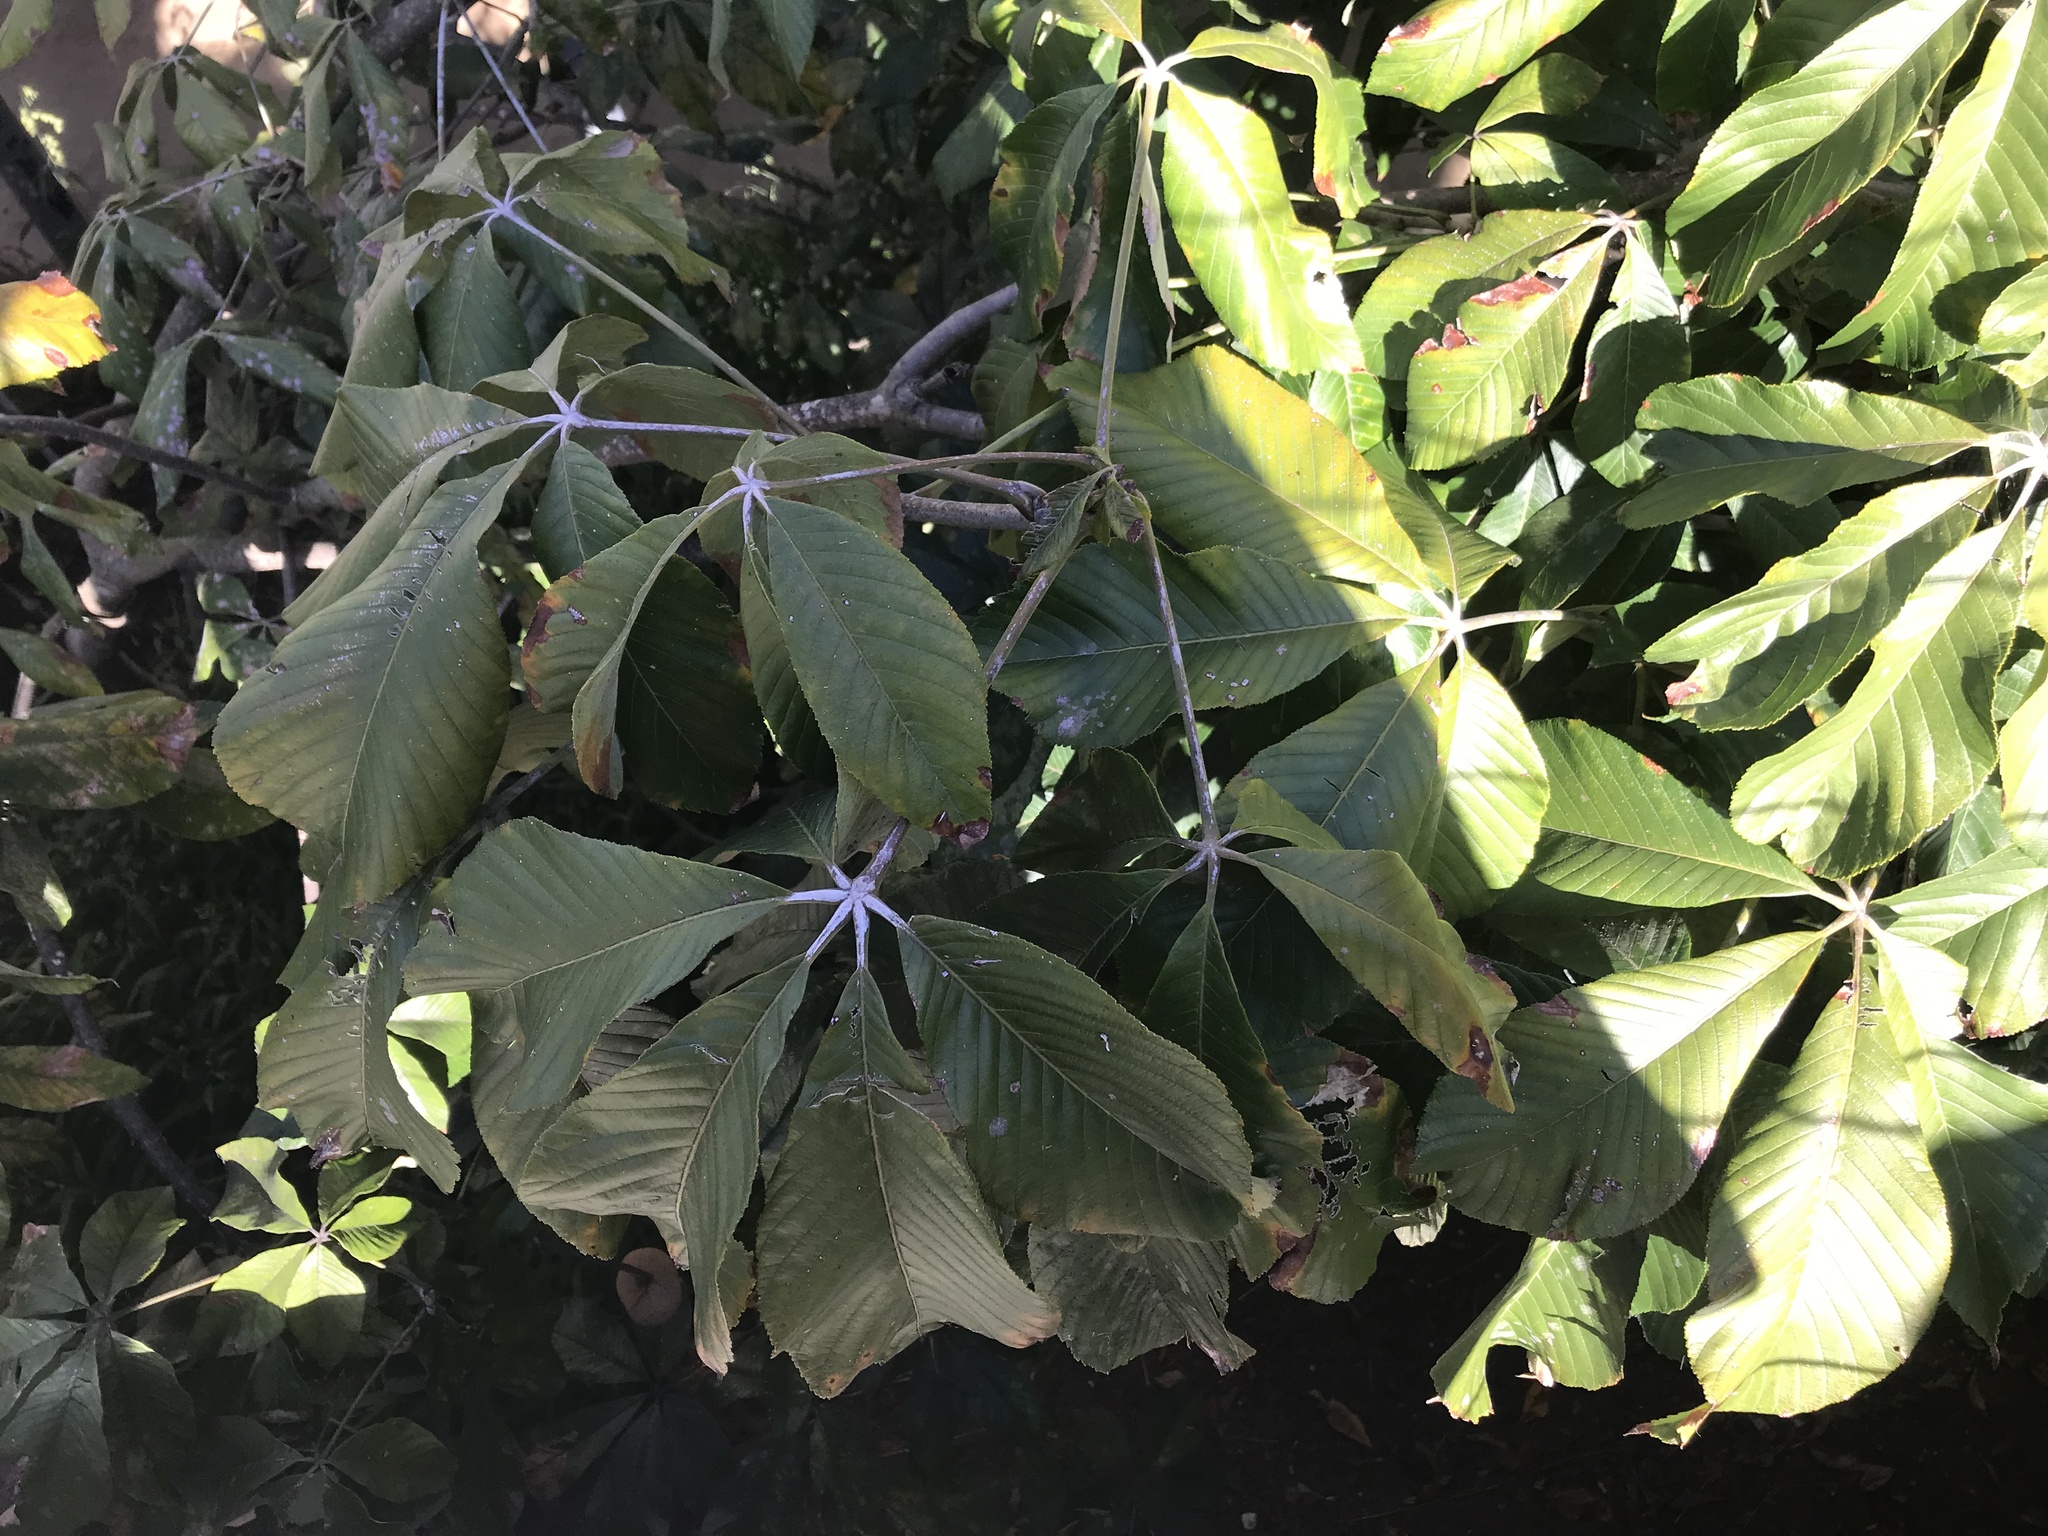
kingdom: Plantae
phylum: Tracheophyta
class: Magnoliopsida
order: Sapindales
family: Sapindaceae
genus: Aesculus
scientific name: Aesculus pavia
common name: Red buckeye
